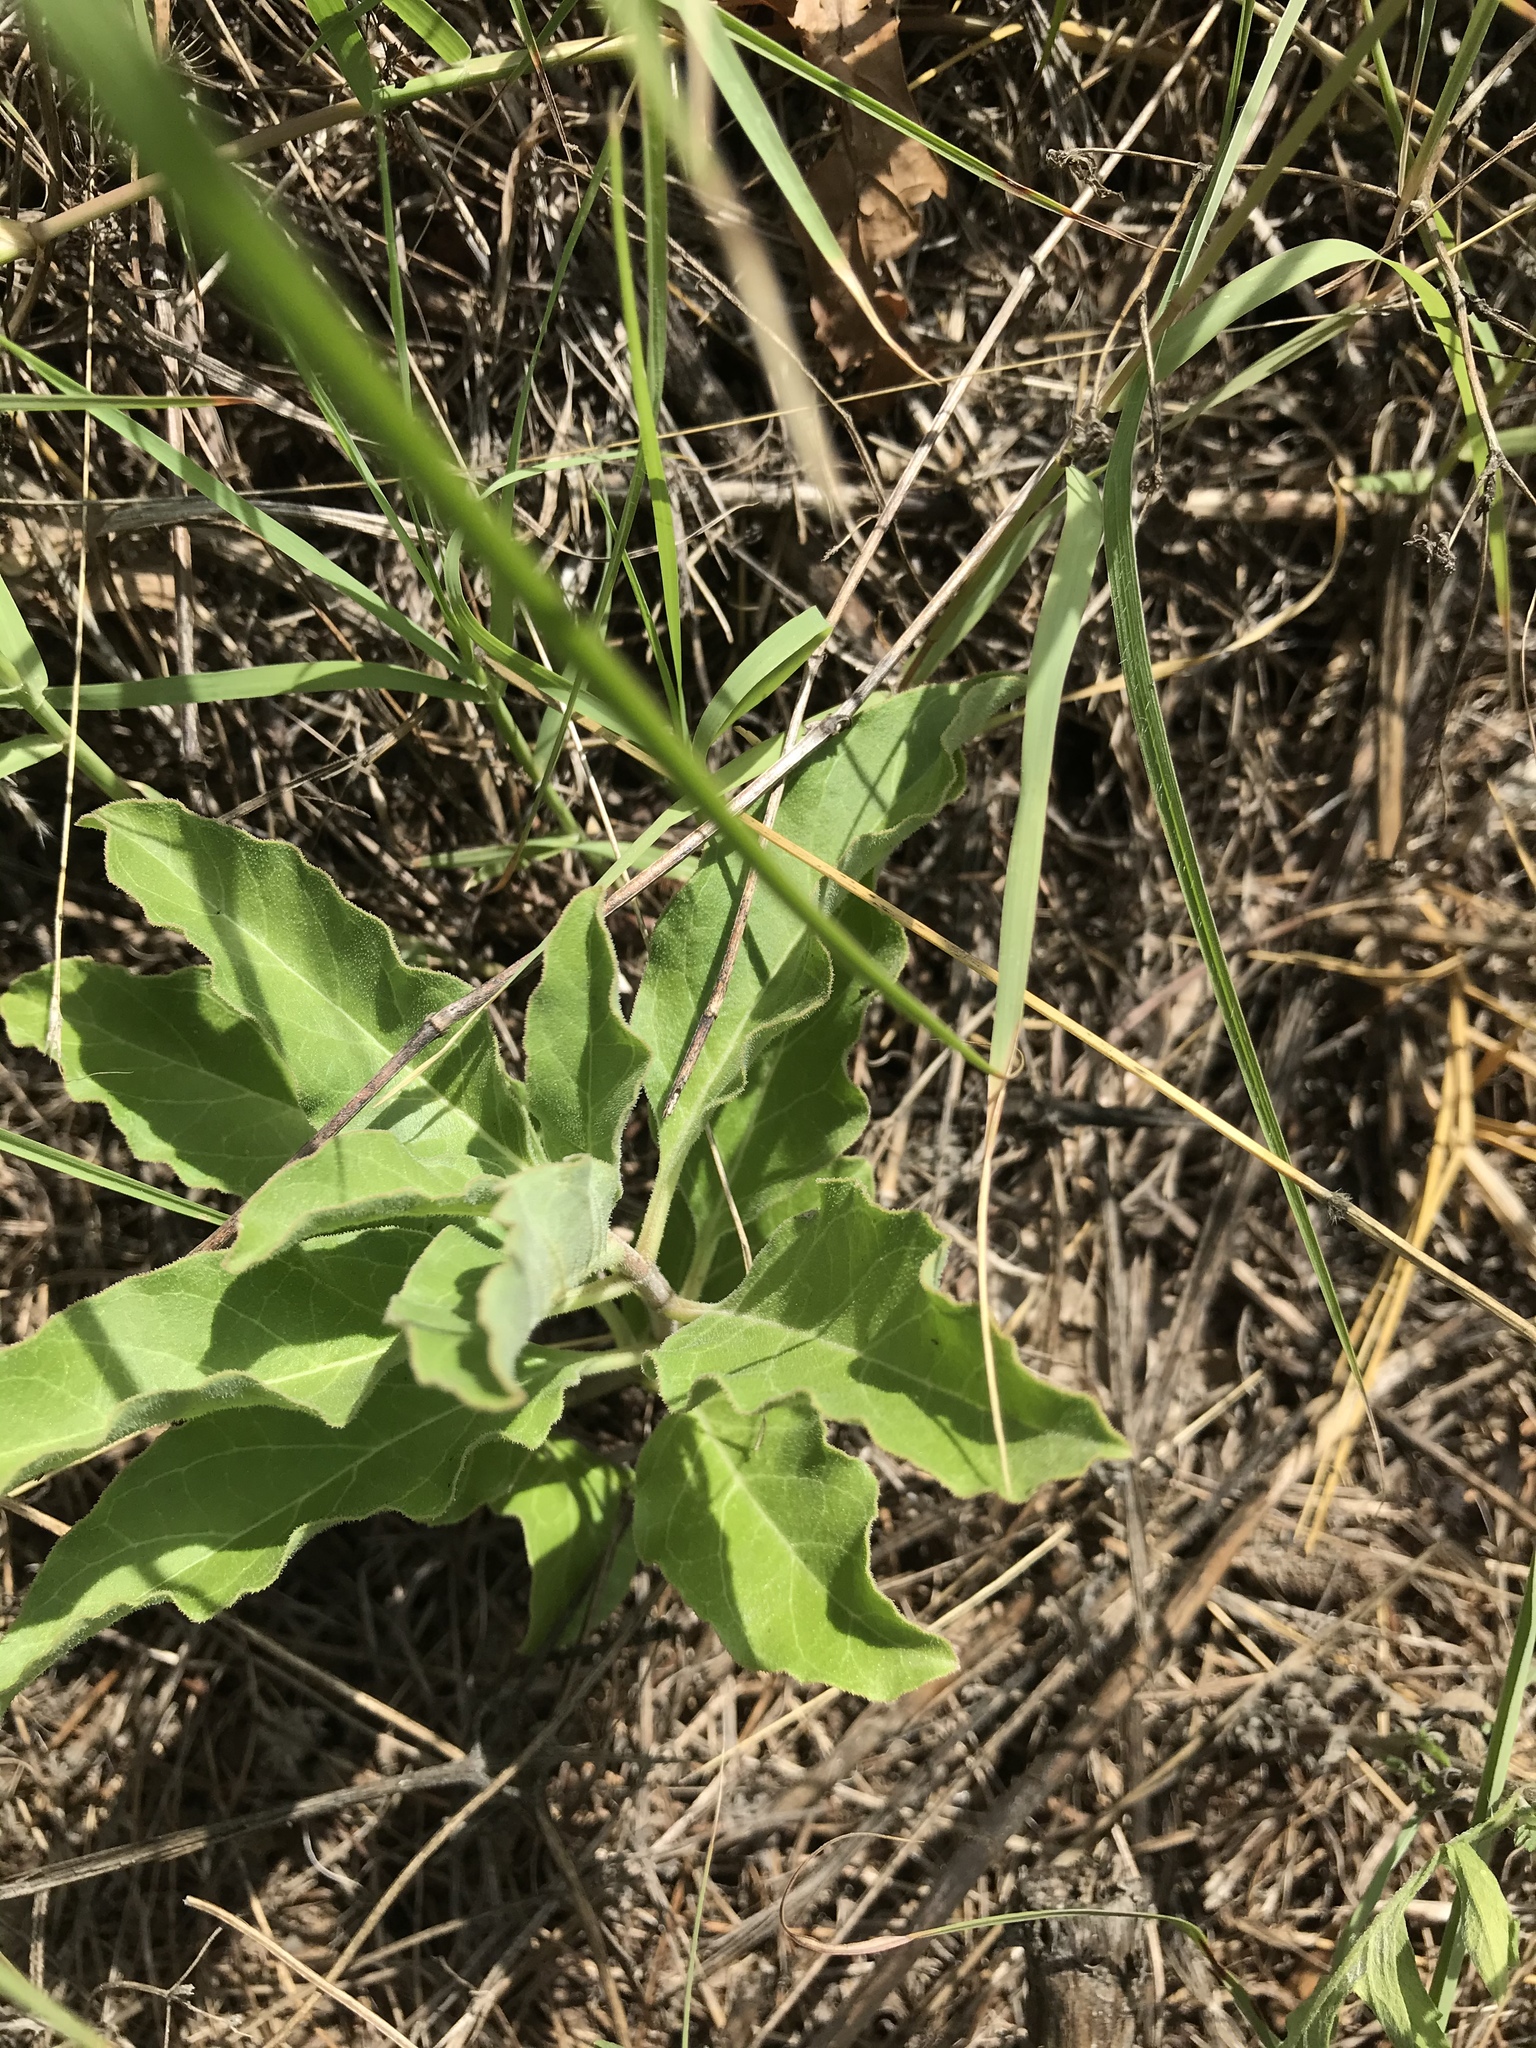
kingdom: Plantae
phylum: Tracheophyta
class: Magnoliopsida
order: Gentianales
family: Apocynaceae
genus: Asclepias
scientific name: Asclepias oenotheroides
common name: Zizotes milkweed
